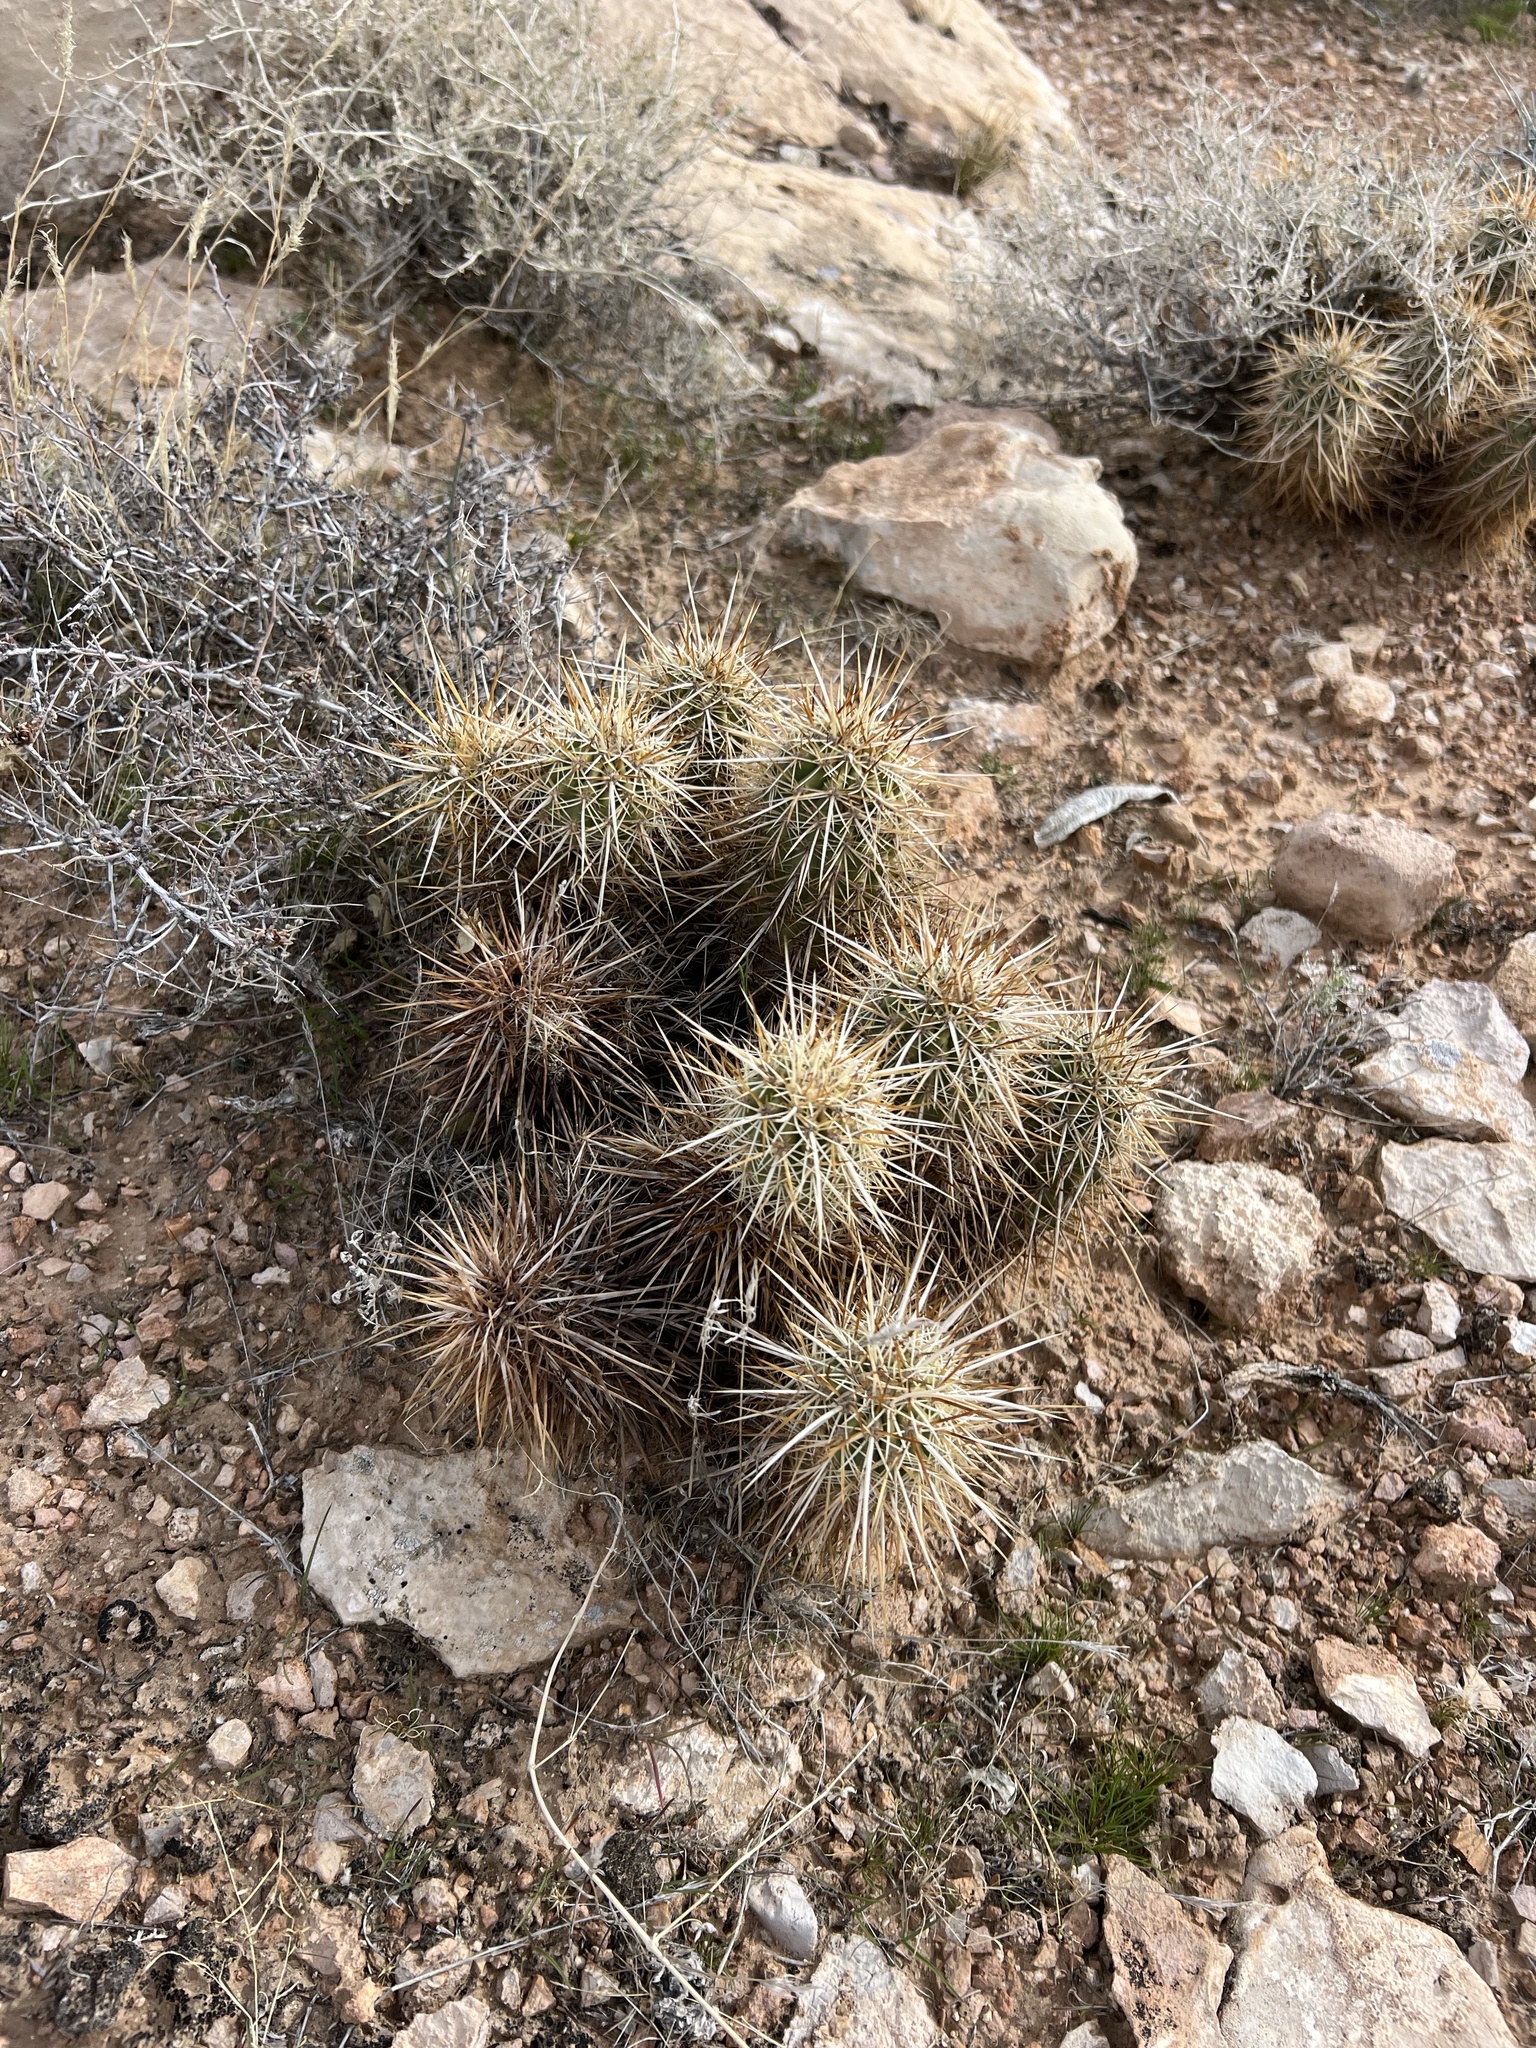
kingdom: Plantae
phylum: Tracheophyta
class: Magnoliopsida
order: Caryophyllales
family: Cactaceae
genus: Echinocereus
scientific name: Echinocereus engelmannii
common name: Engelmann's hedgehog cactus
